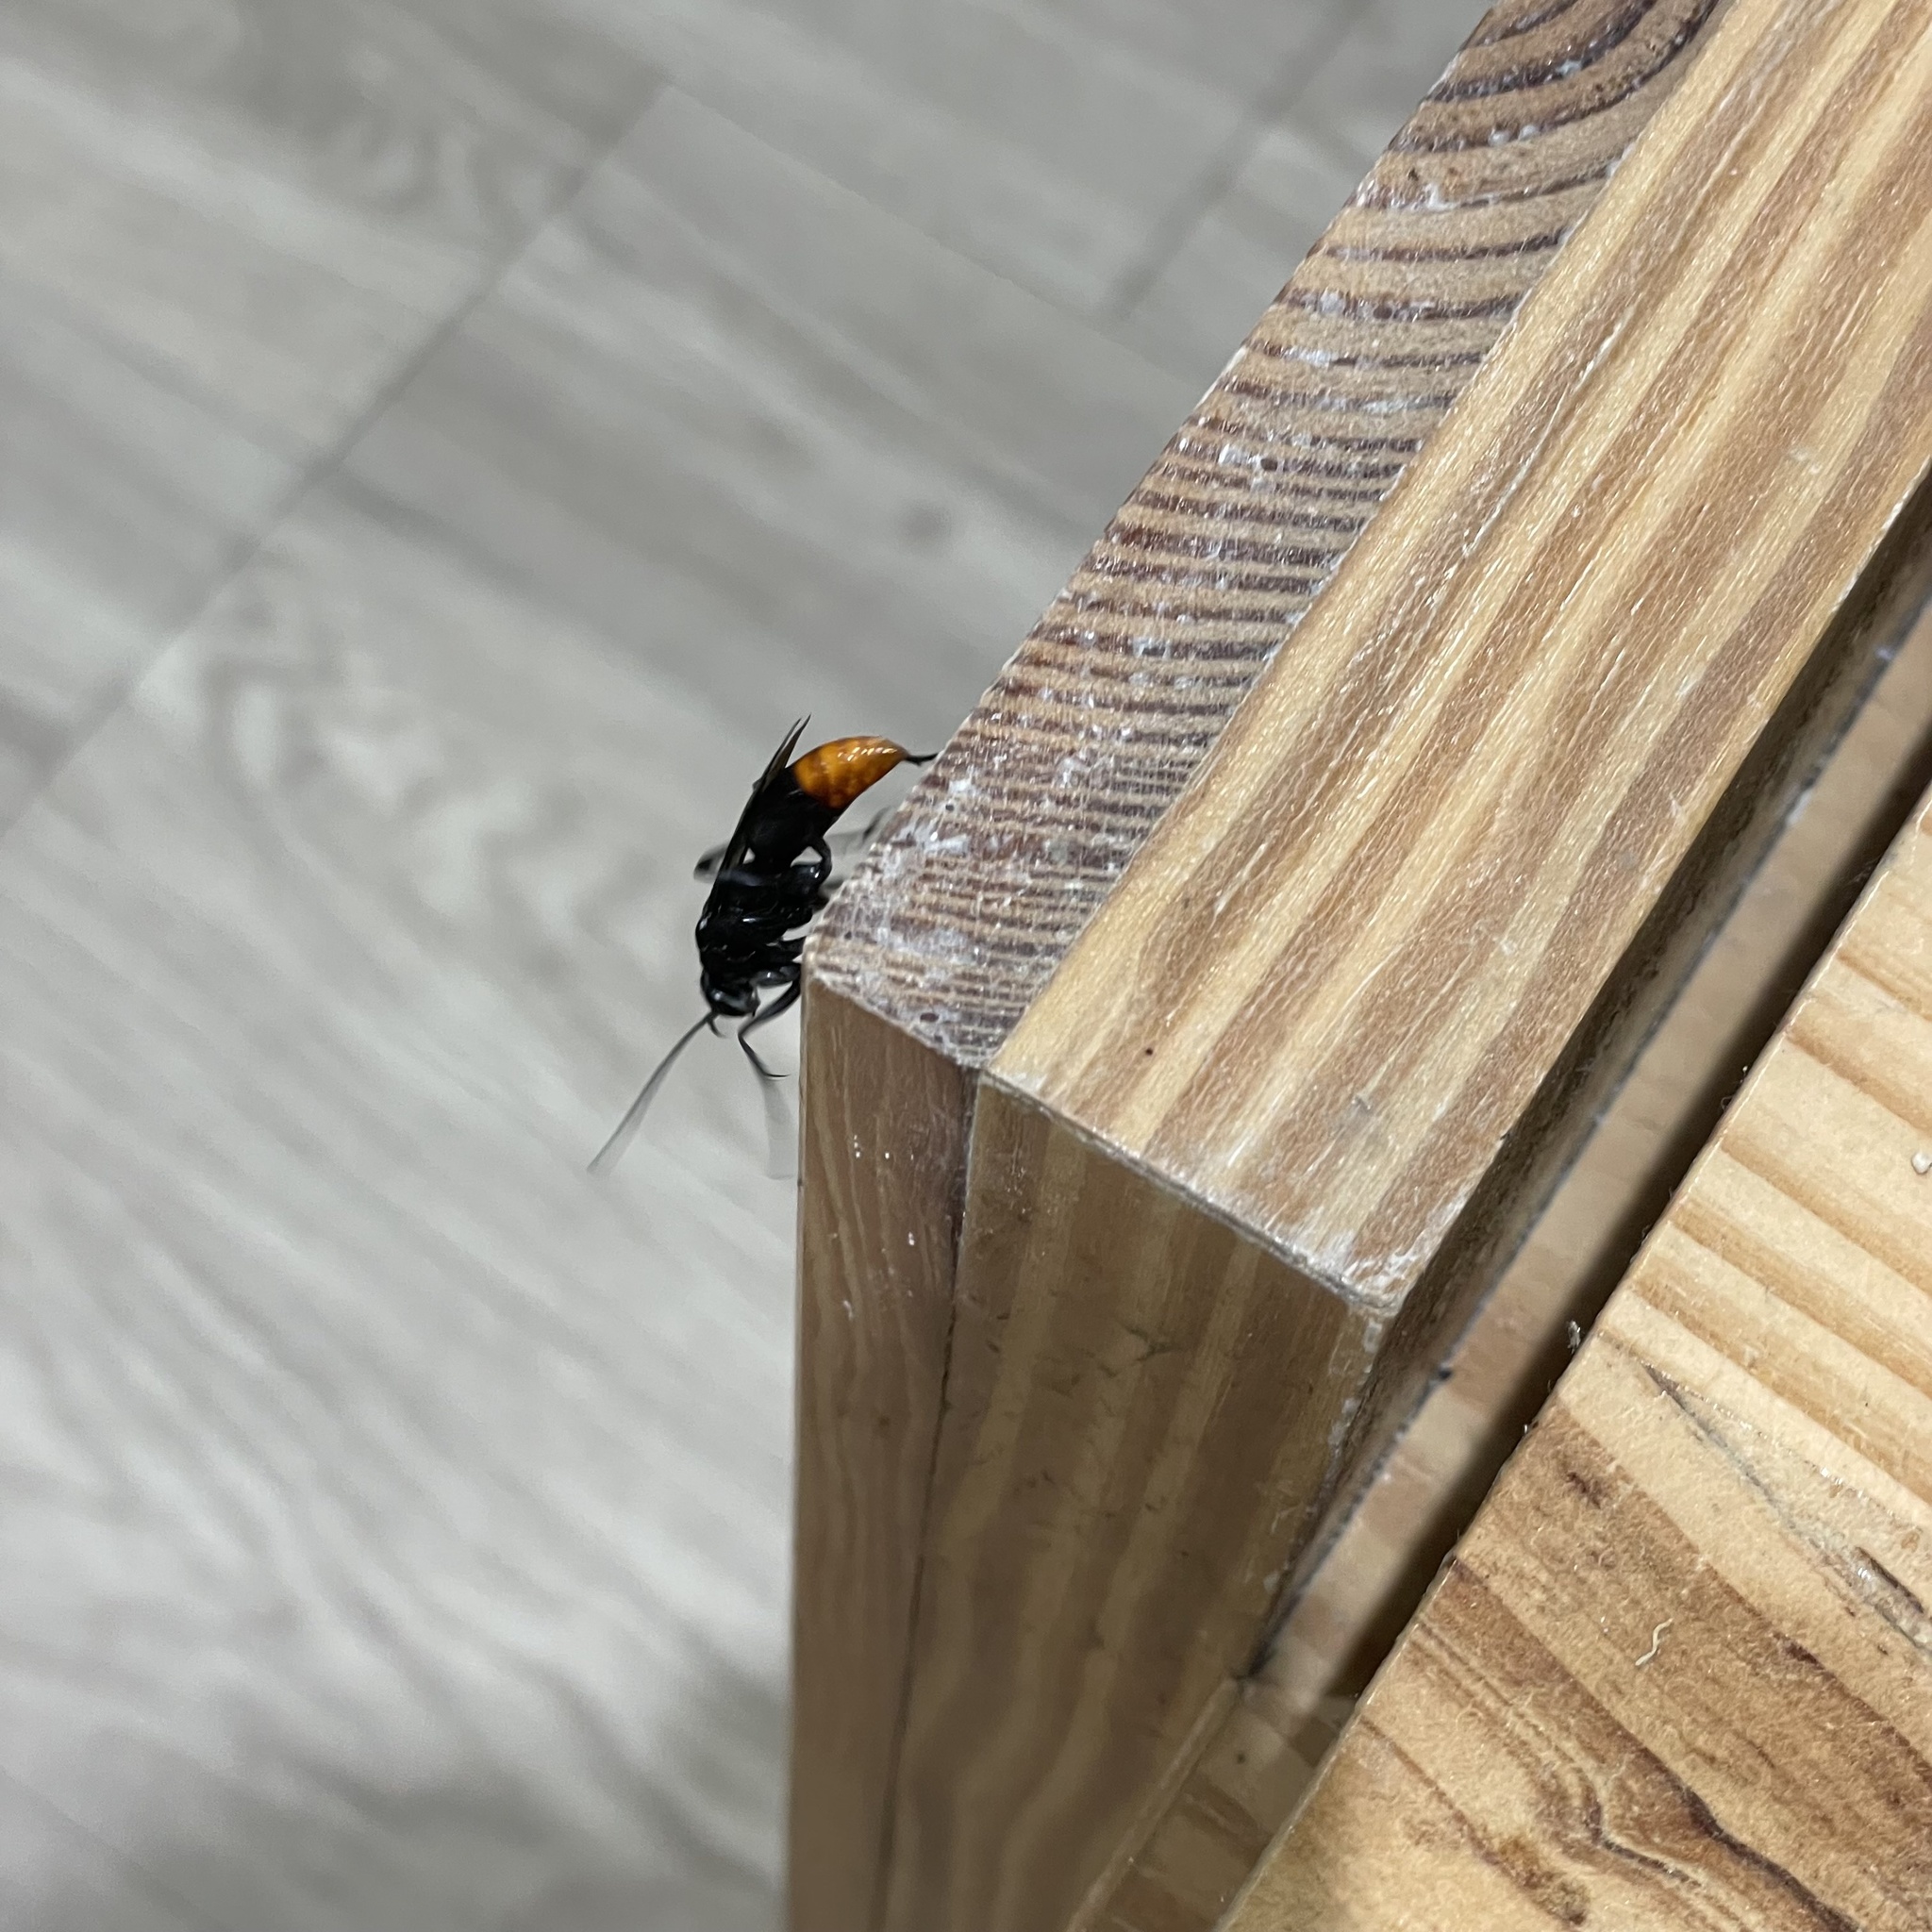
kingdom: Animalia
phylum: Arthropoda
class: Insecta
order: Hymenoptera
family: Pompilidae
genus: Tachypompilus
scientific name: Tachypompilus analis
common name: Spider wasp
